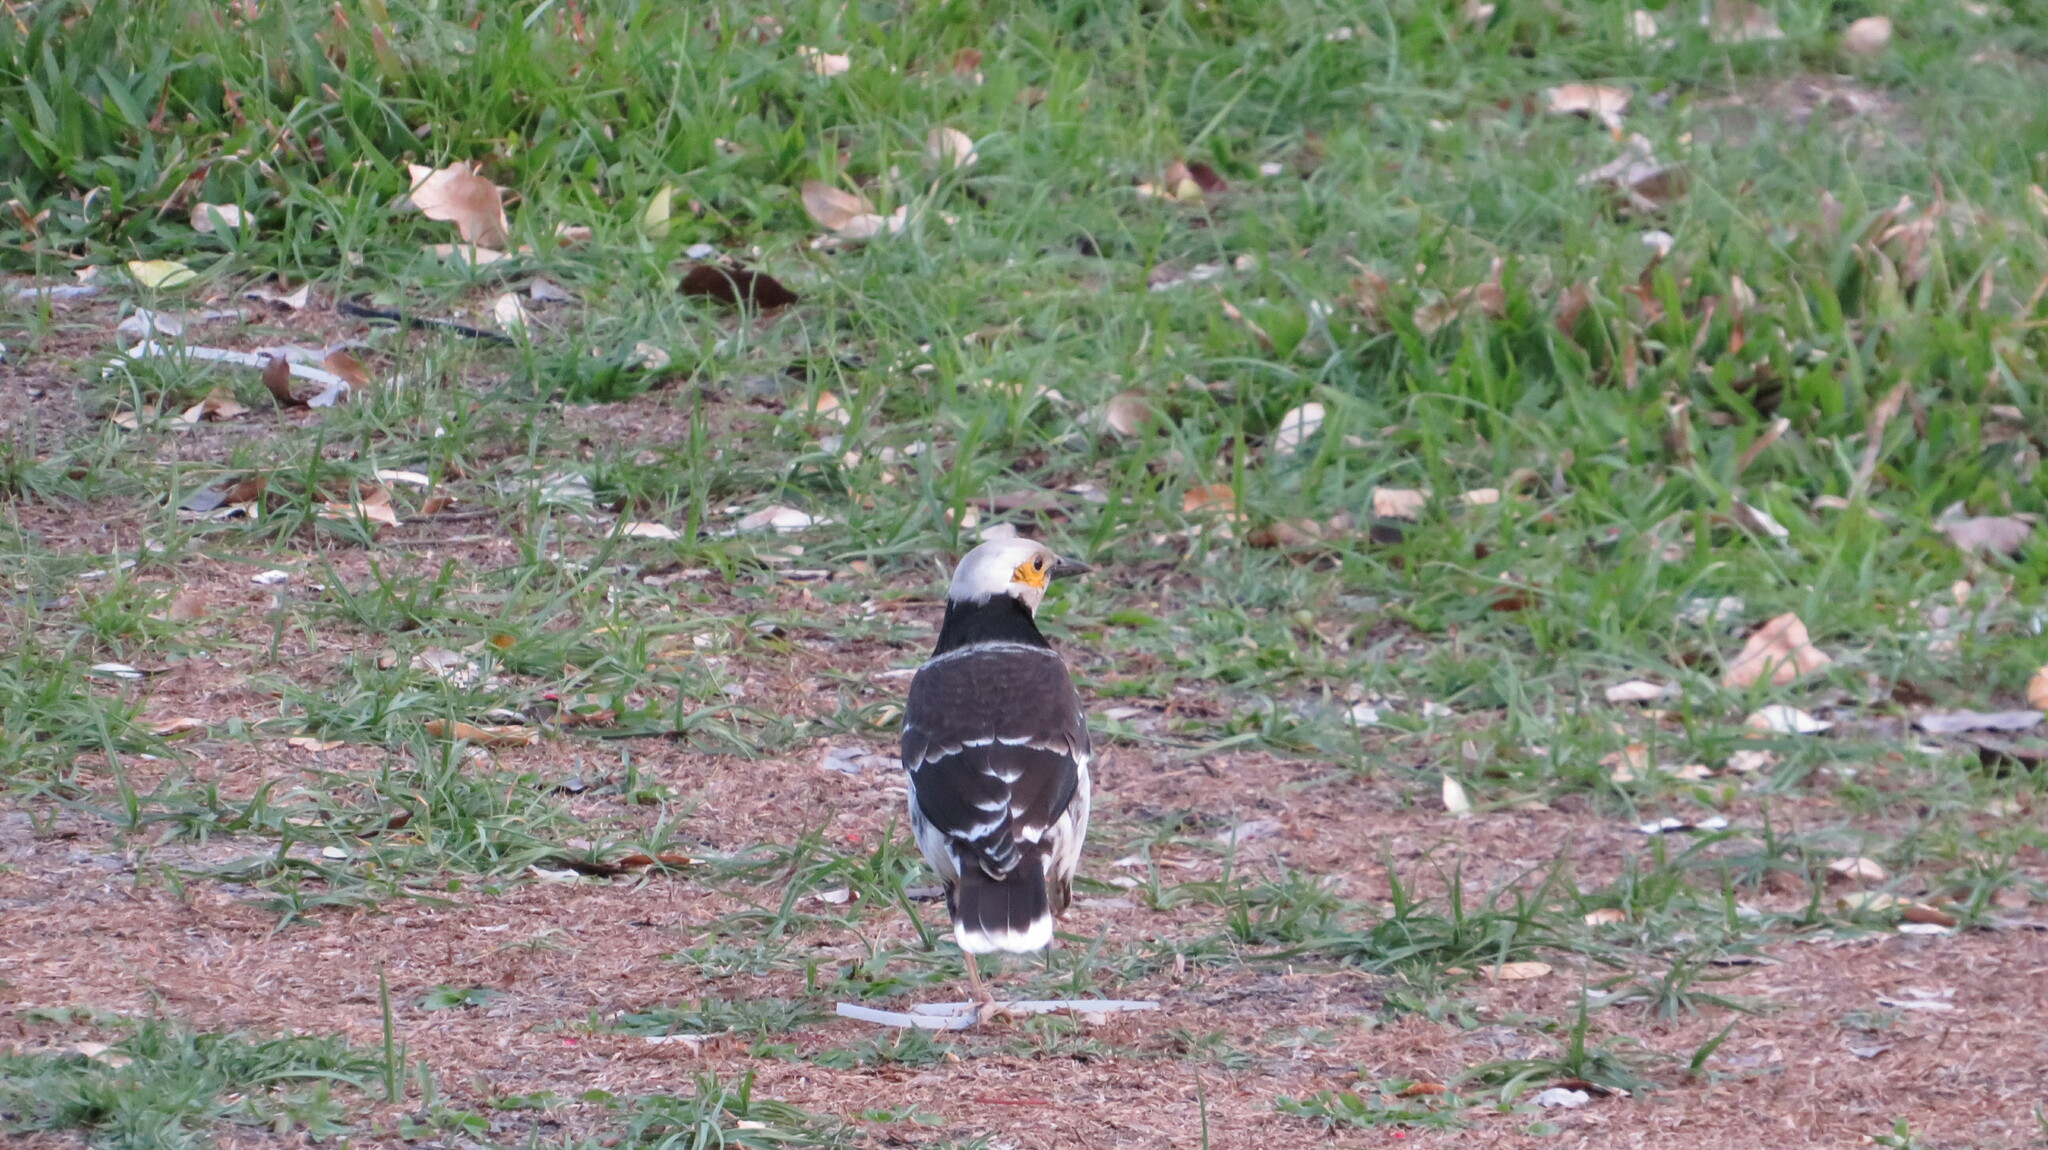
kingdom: Animalia
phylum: Chordata
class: Aves
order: Passeriformes
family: Sturnidae
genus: Gracupica
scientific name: Gracupica nigricollis
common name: Black-collared starling
